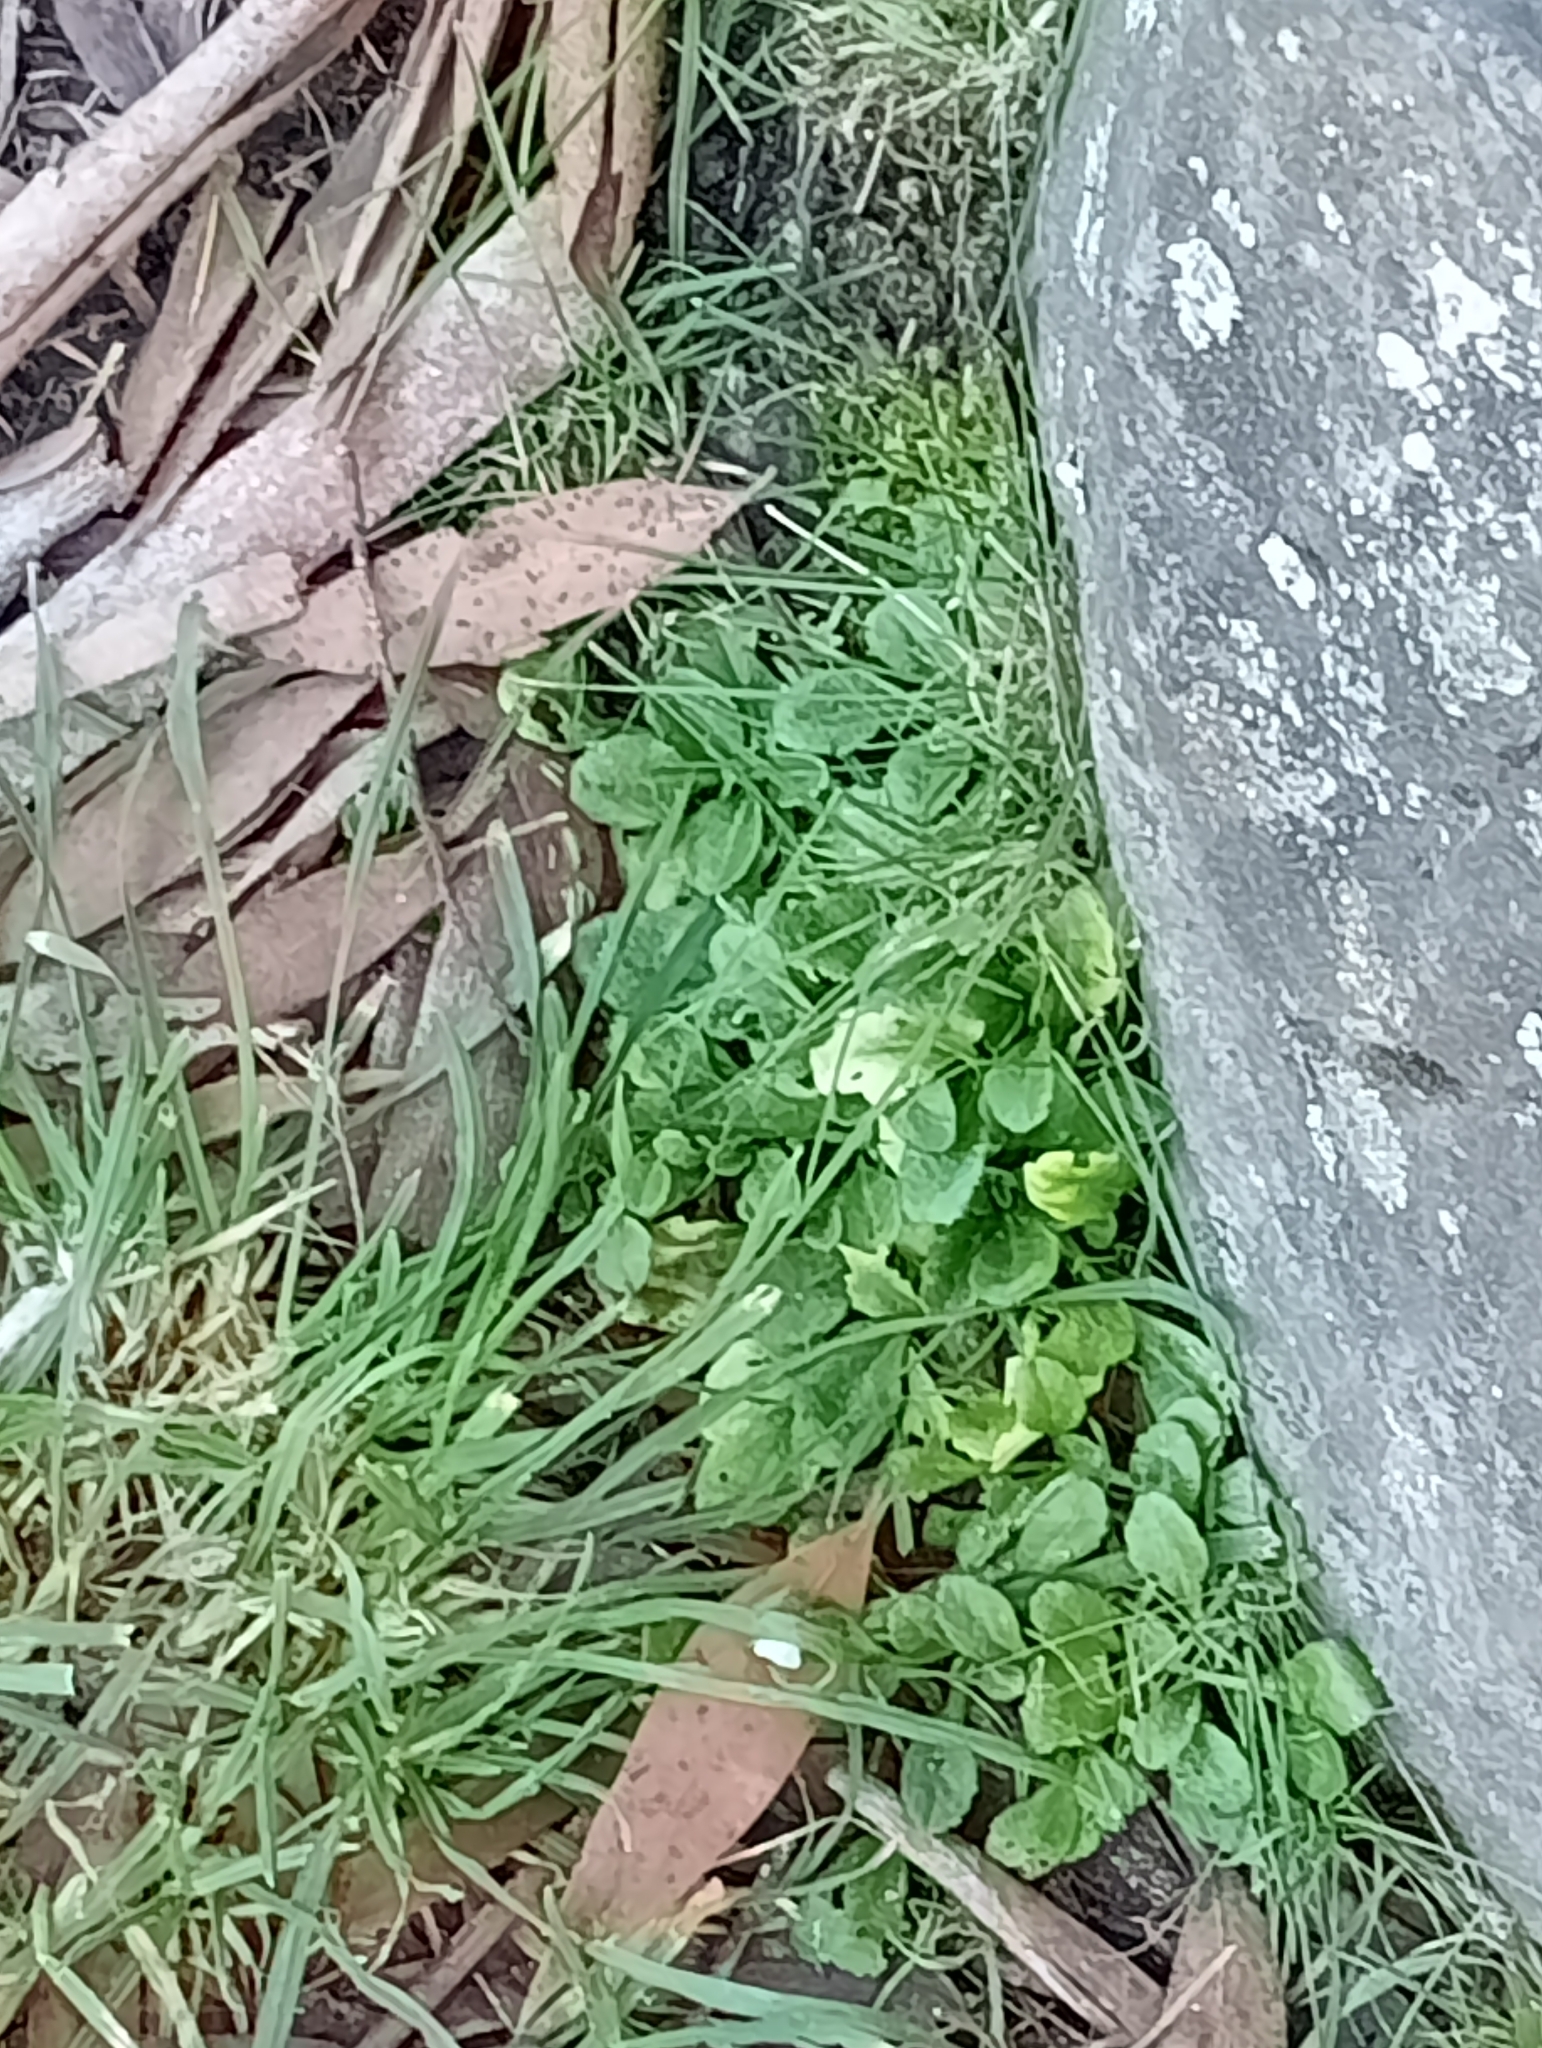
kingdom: Plantae
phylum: Tracheophyta
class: Magnoliopsida
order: Asterales
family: Asteraceae
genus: Bellis
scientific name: Bellis perennis
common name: Lawndaisy
